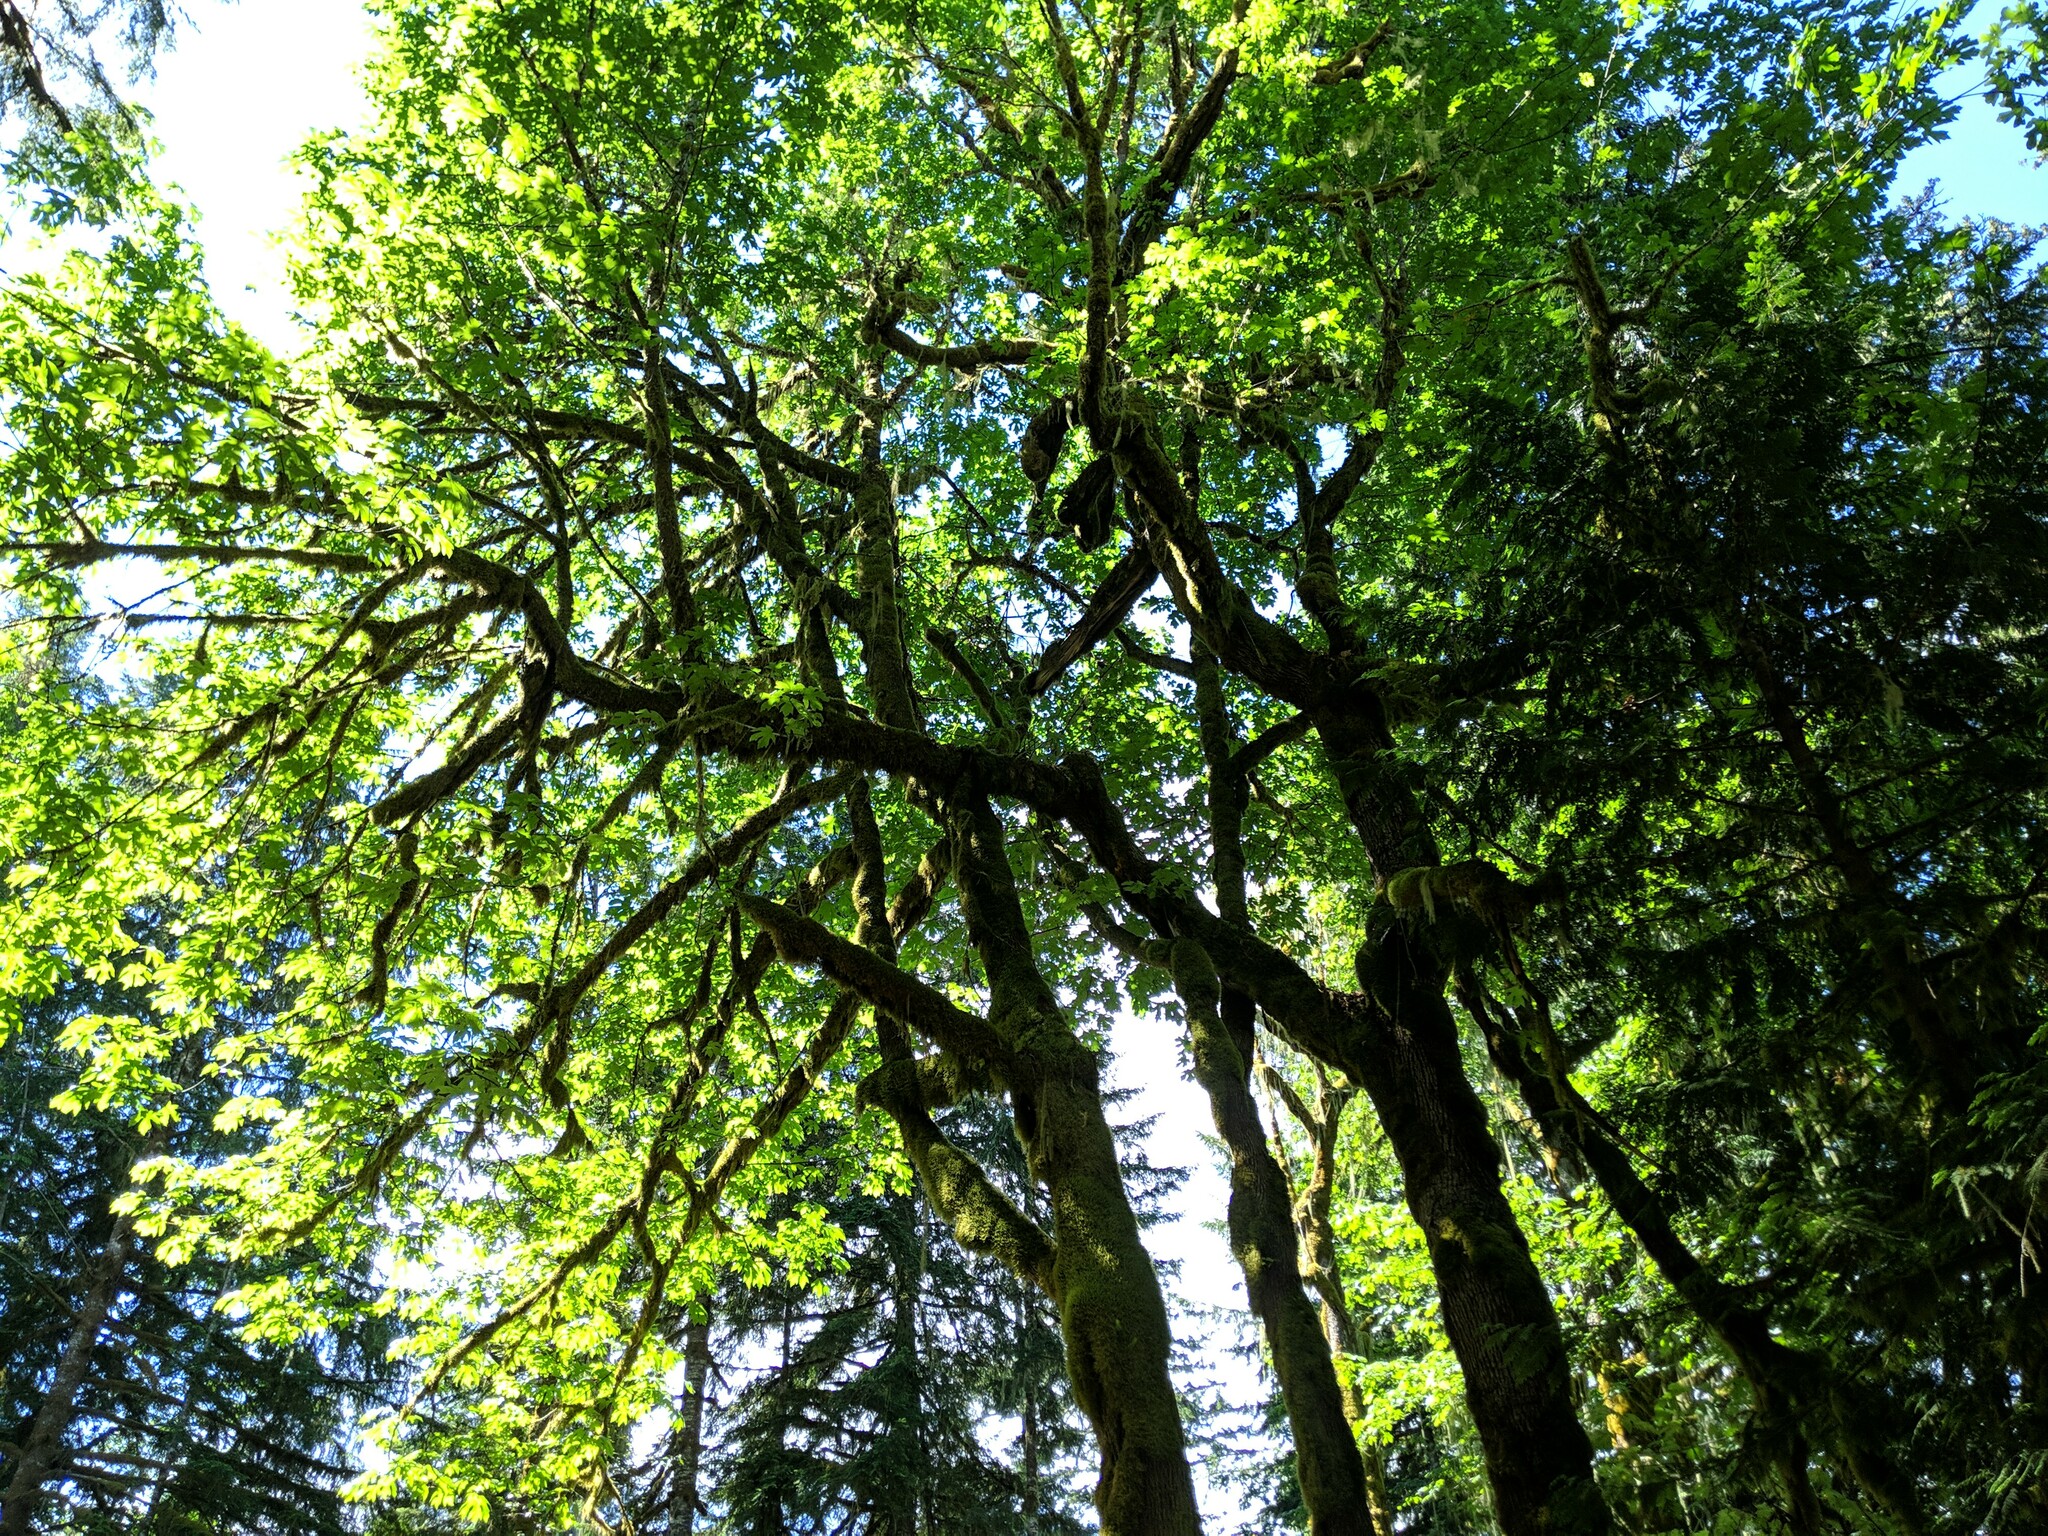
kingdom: Plantae
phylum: Tracheophyta
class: Magnoliopsida
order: Sapindales
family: Sapindaceae
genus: Acer
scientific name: Acer macrophyllum
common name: Oregon maple
